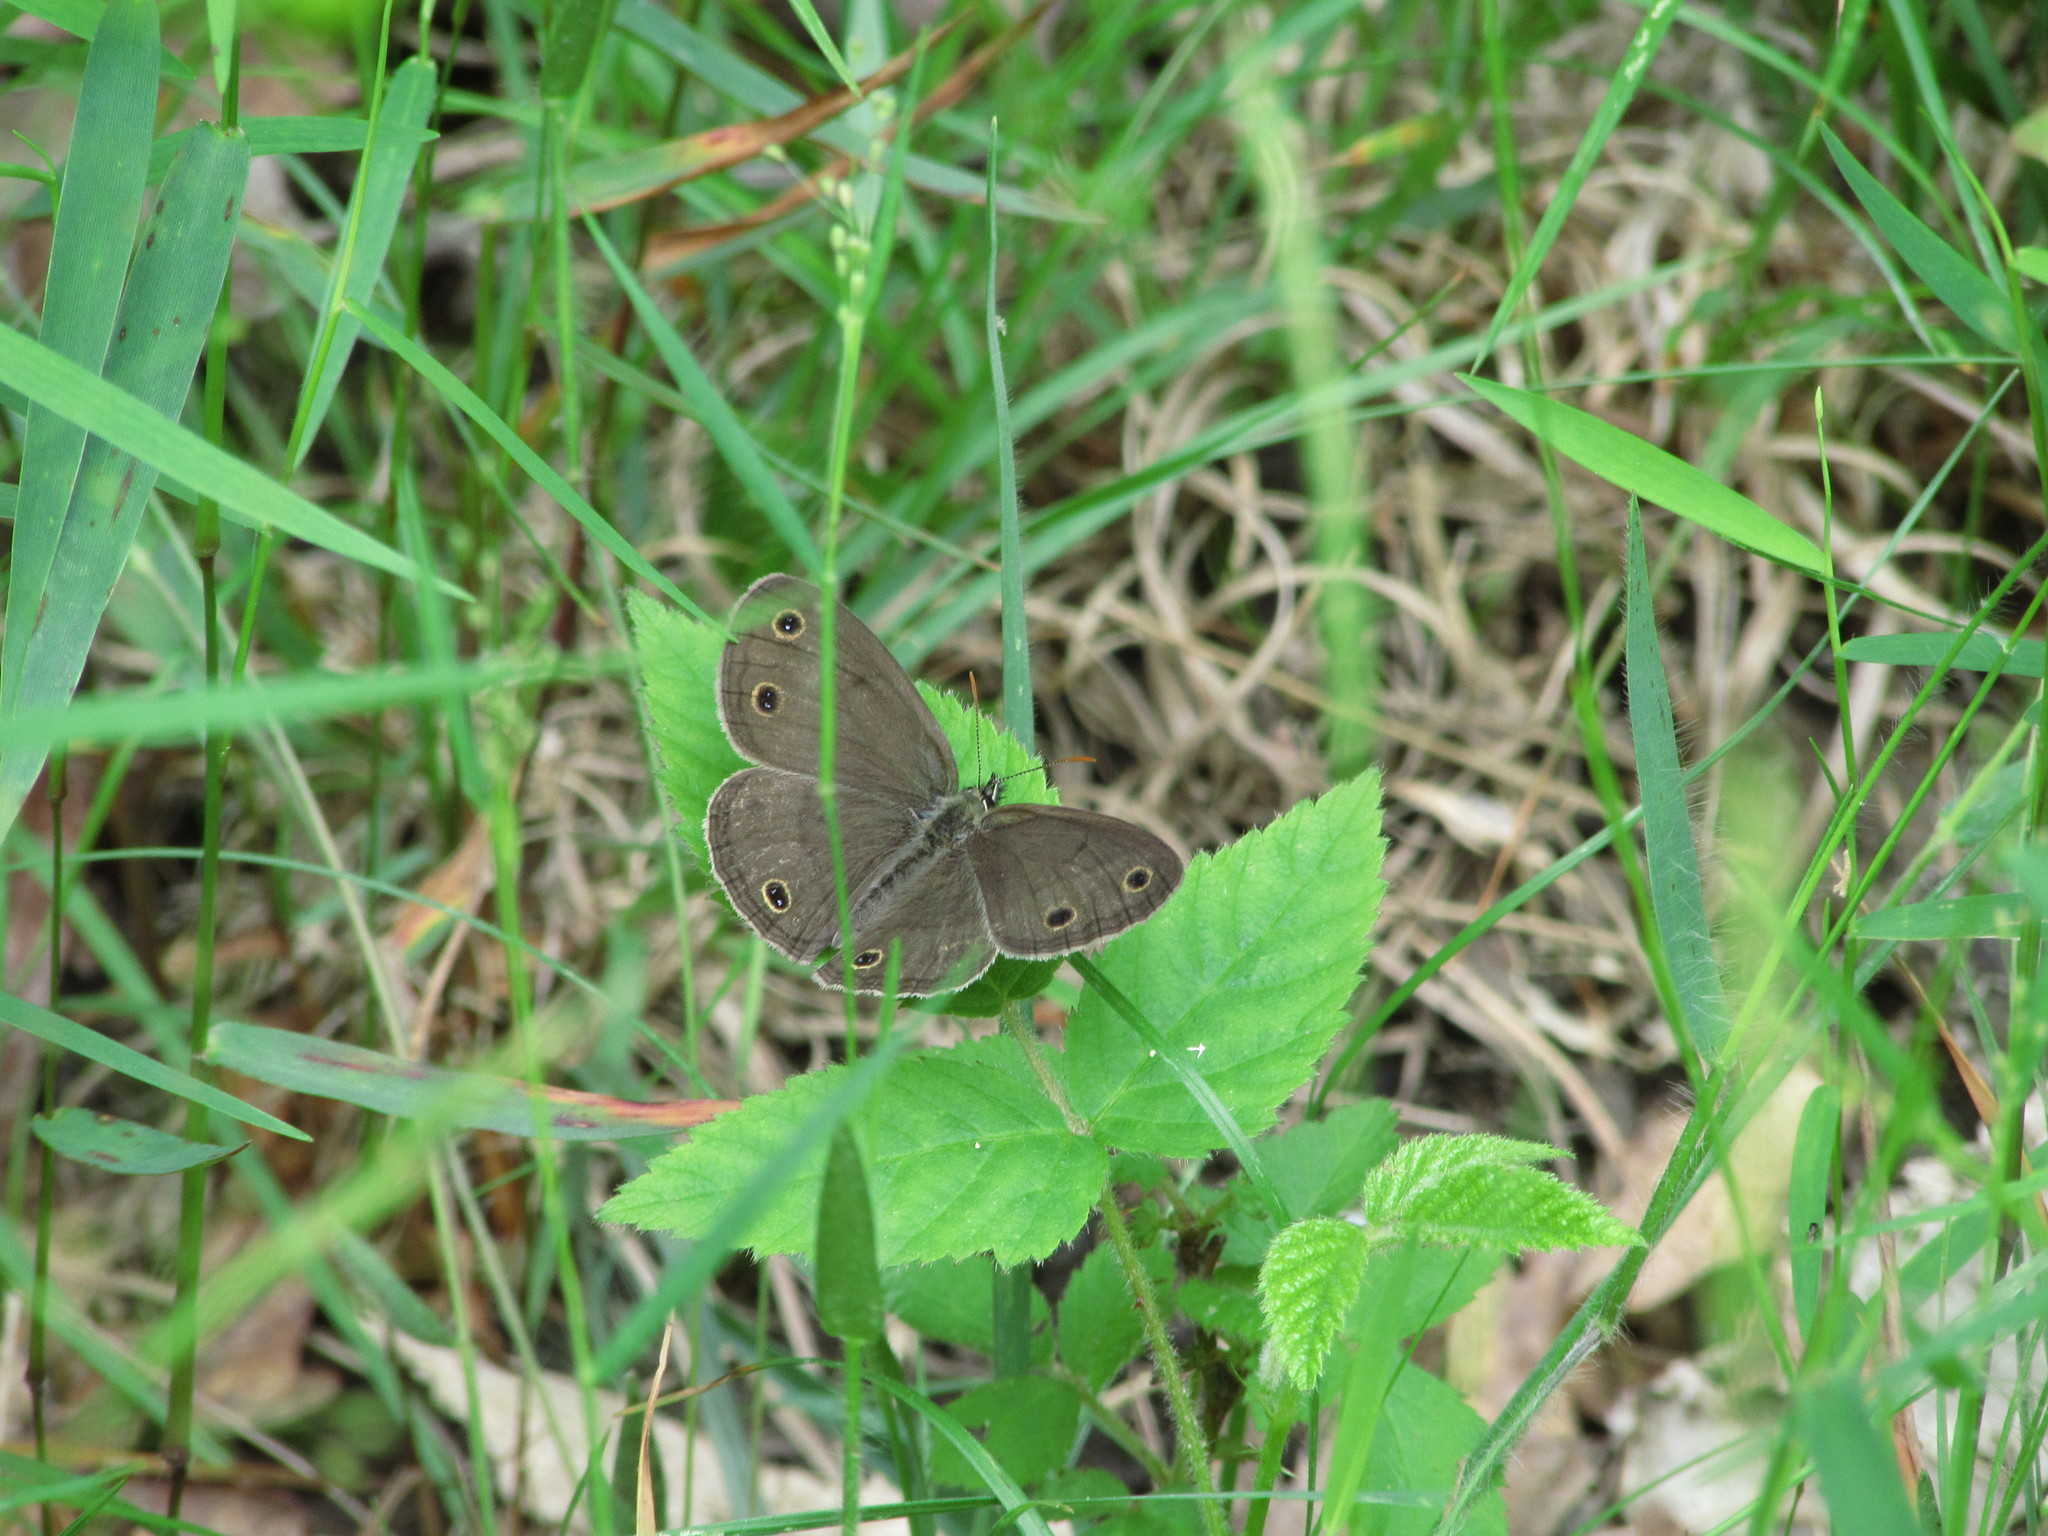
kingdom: Animalia
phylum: Arthropoda
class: Insecta
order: Lepidoptera
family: Nymphalidae
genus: Euptychia
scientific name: Euptychia cymela
